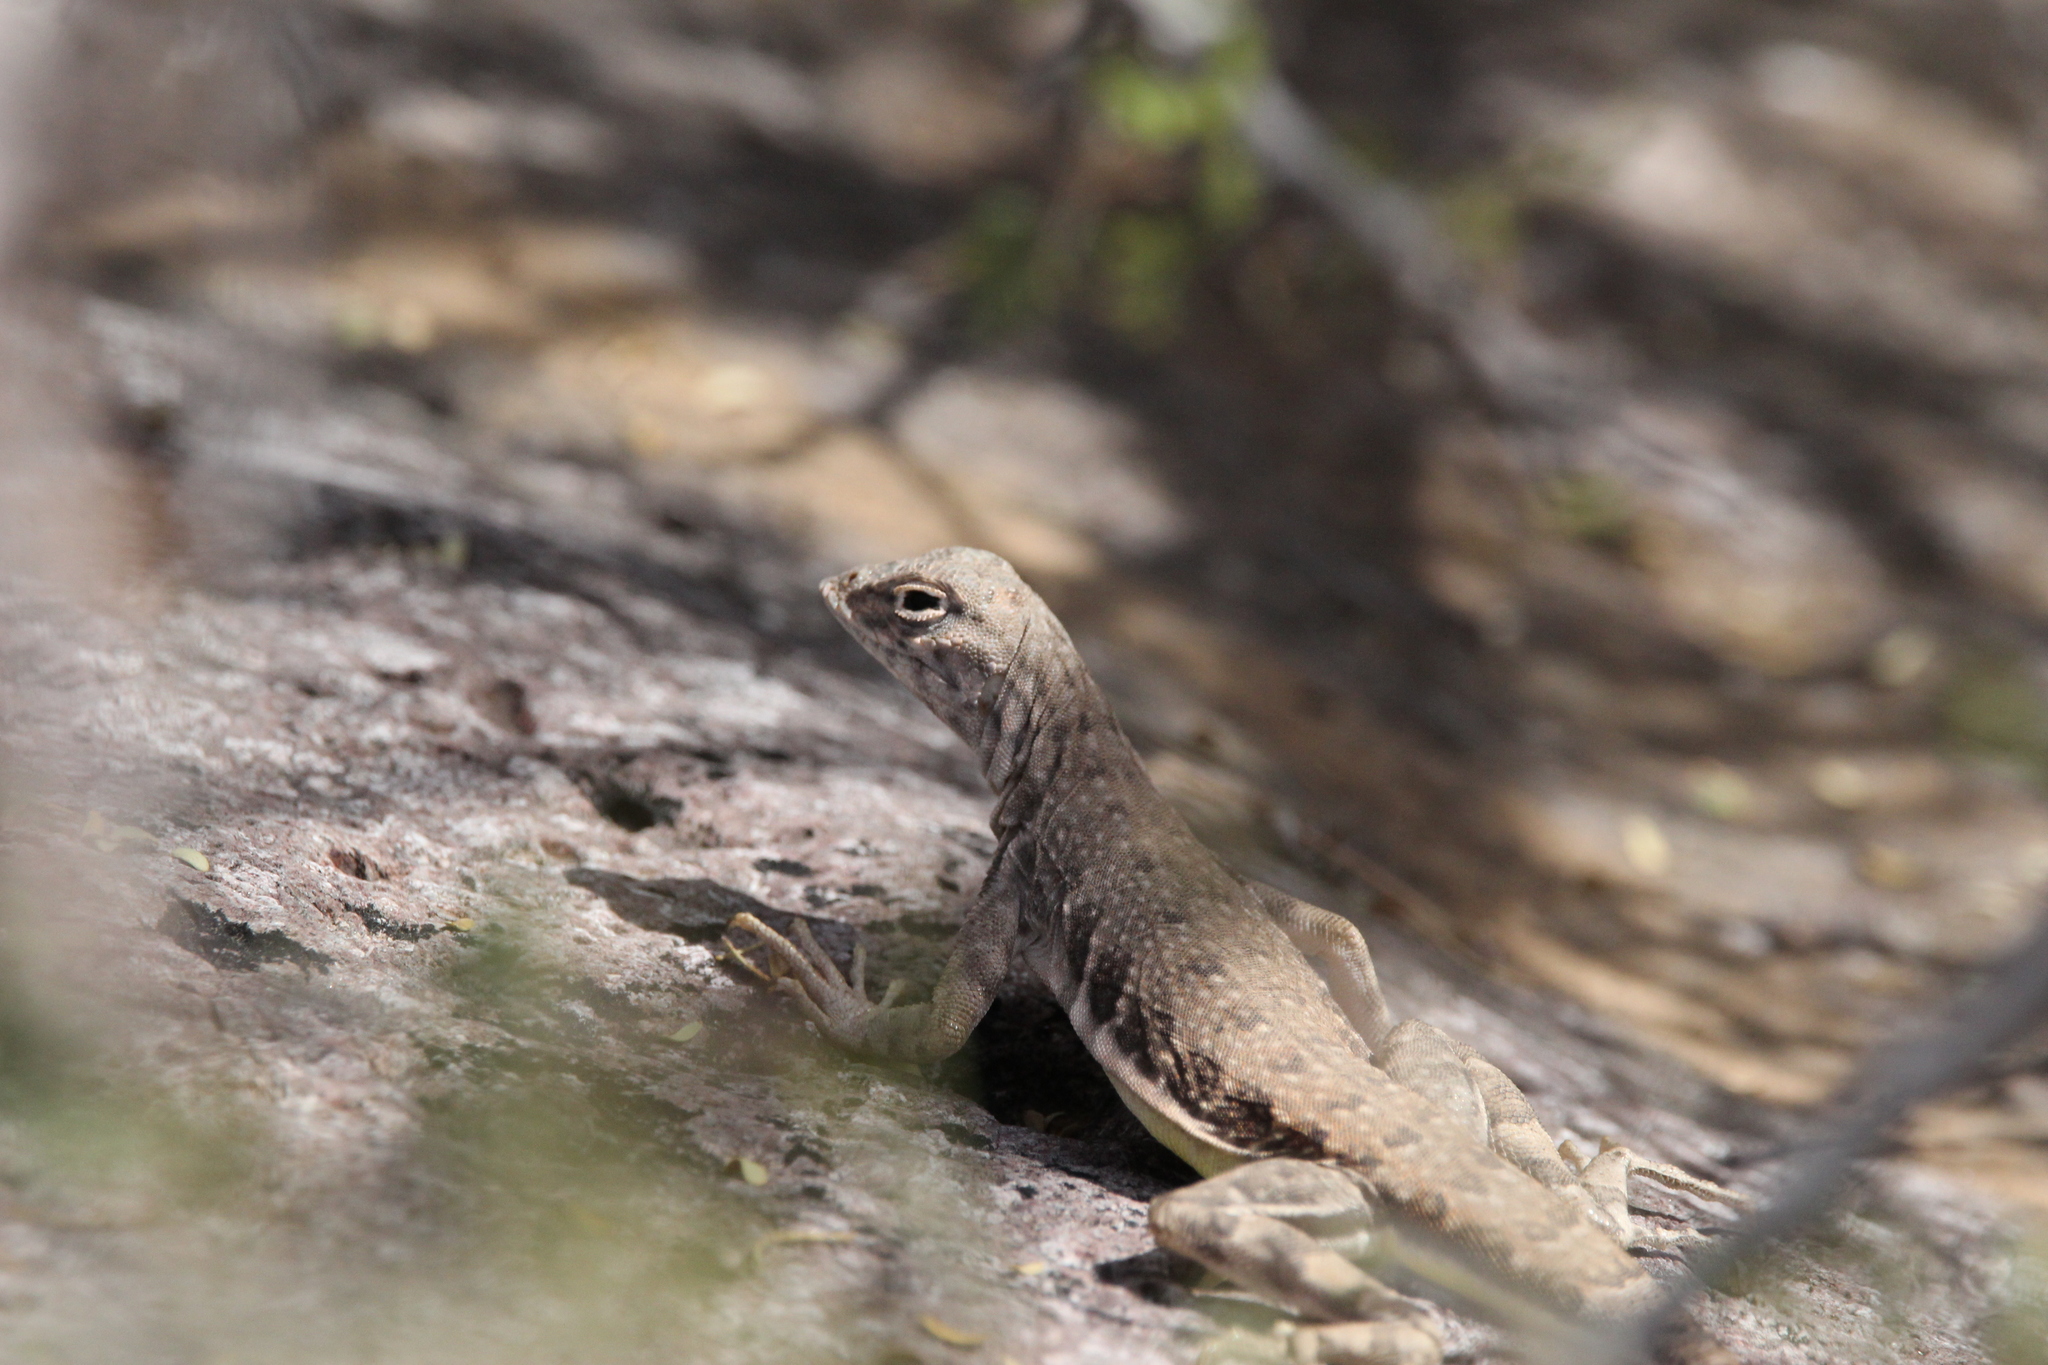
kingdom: Animalia
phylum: Chordata
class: Squamata
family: Phrynosomatidae
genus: Callisaurus
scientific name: Callisaurus draconoides
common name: Zebra-tailed lizard
